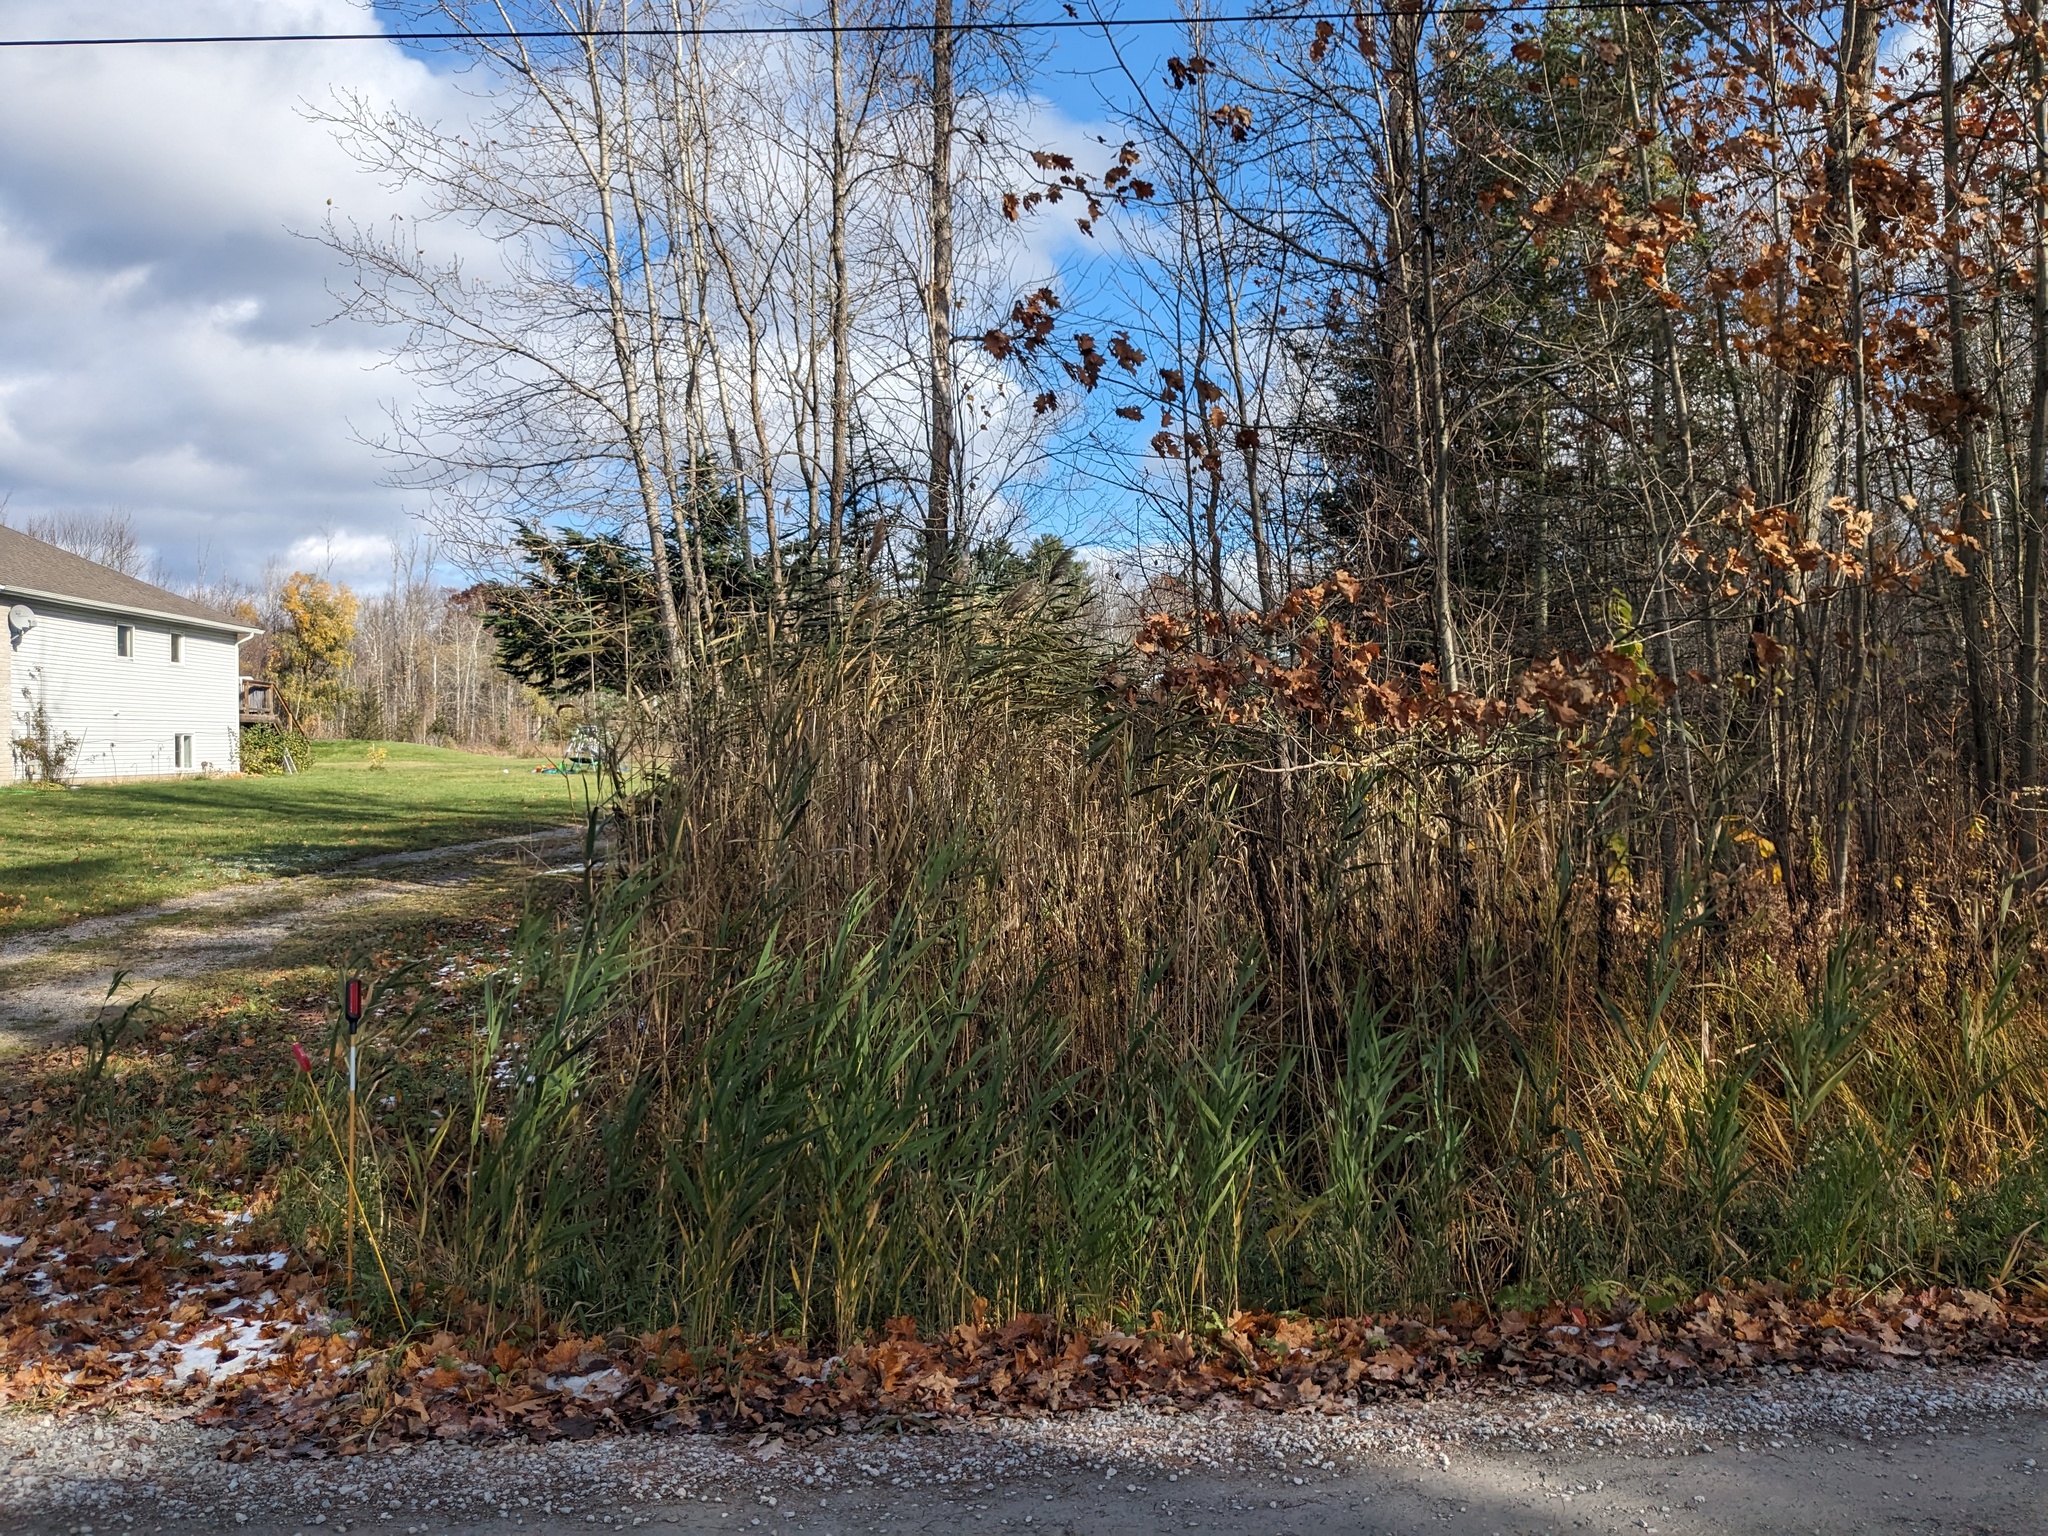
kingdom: Plantae
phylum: Tracheophyta
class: Liliopsida
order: Poales
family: Poaceae
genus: Phragmites
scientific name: Phragmites australis
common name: Common reed
